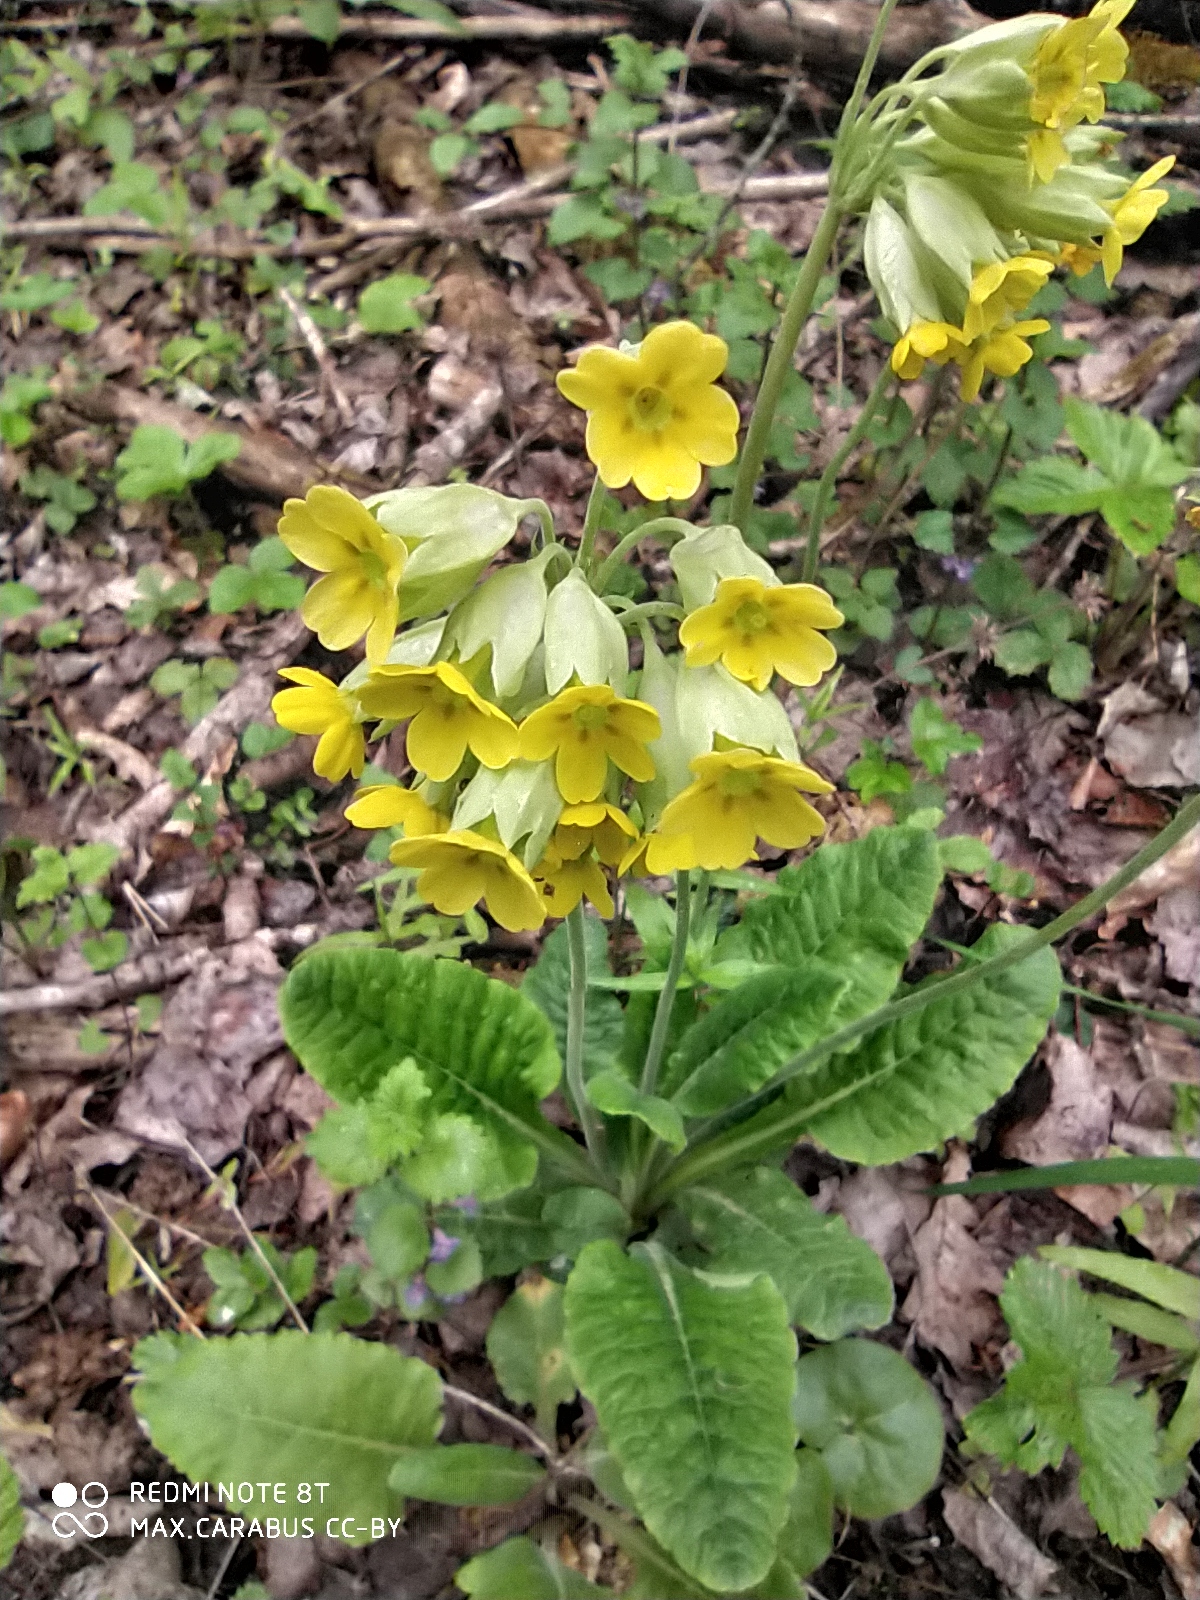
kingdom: Plantae
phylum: Tracheophyta
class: Magnoliopsida
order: Ericales
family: Primulaceae
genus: Primula
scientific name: Primula veris
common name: Cowslip
